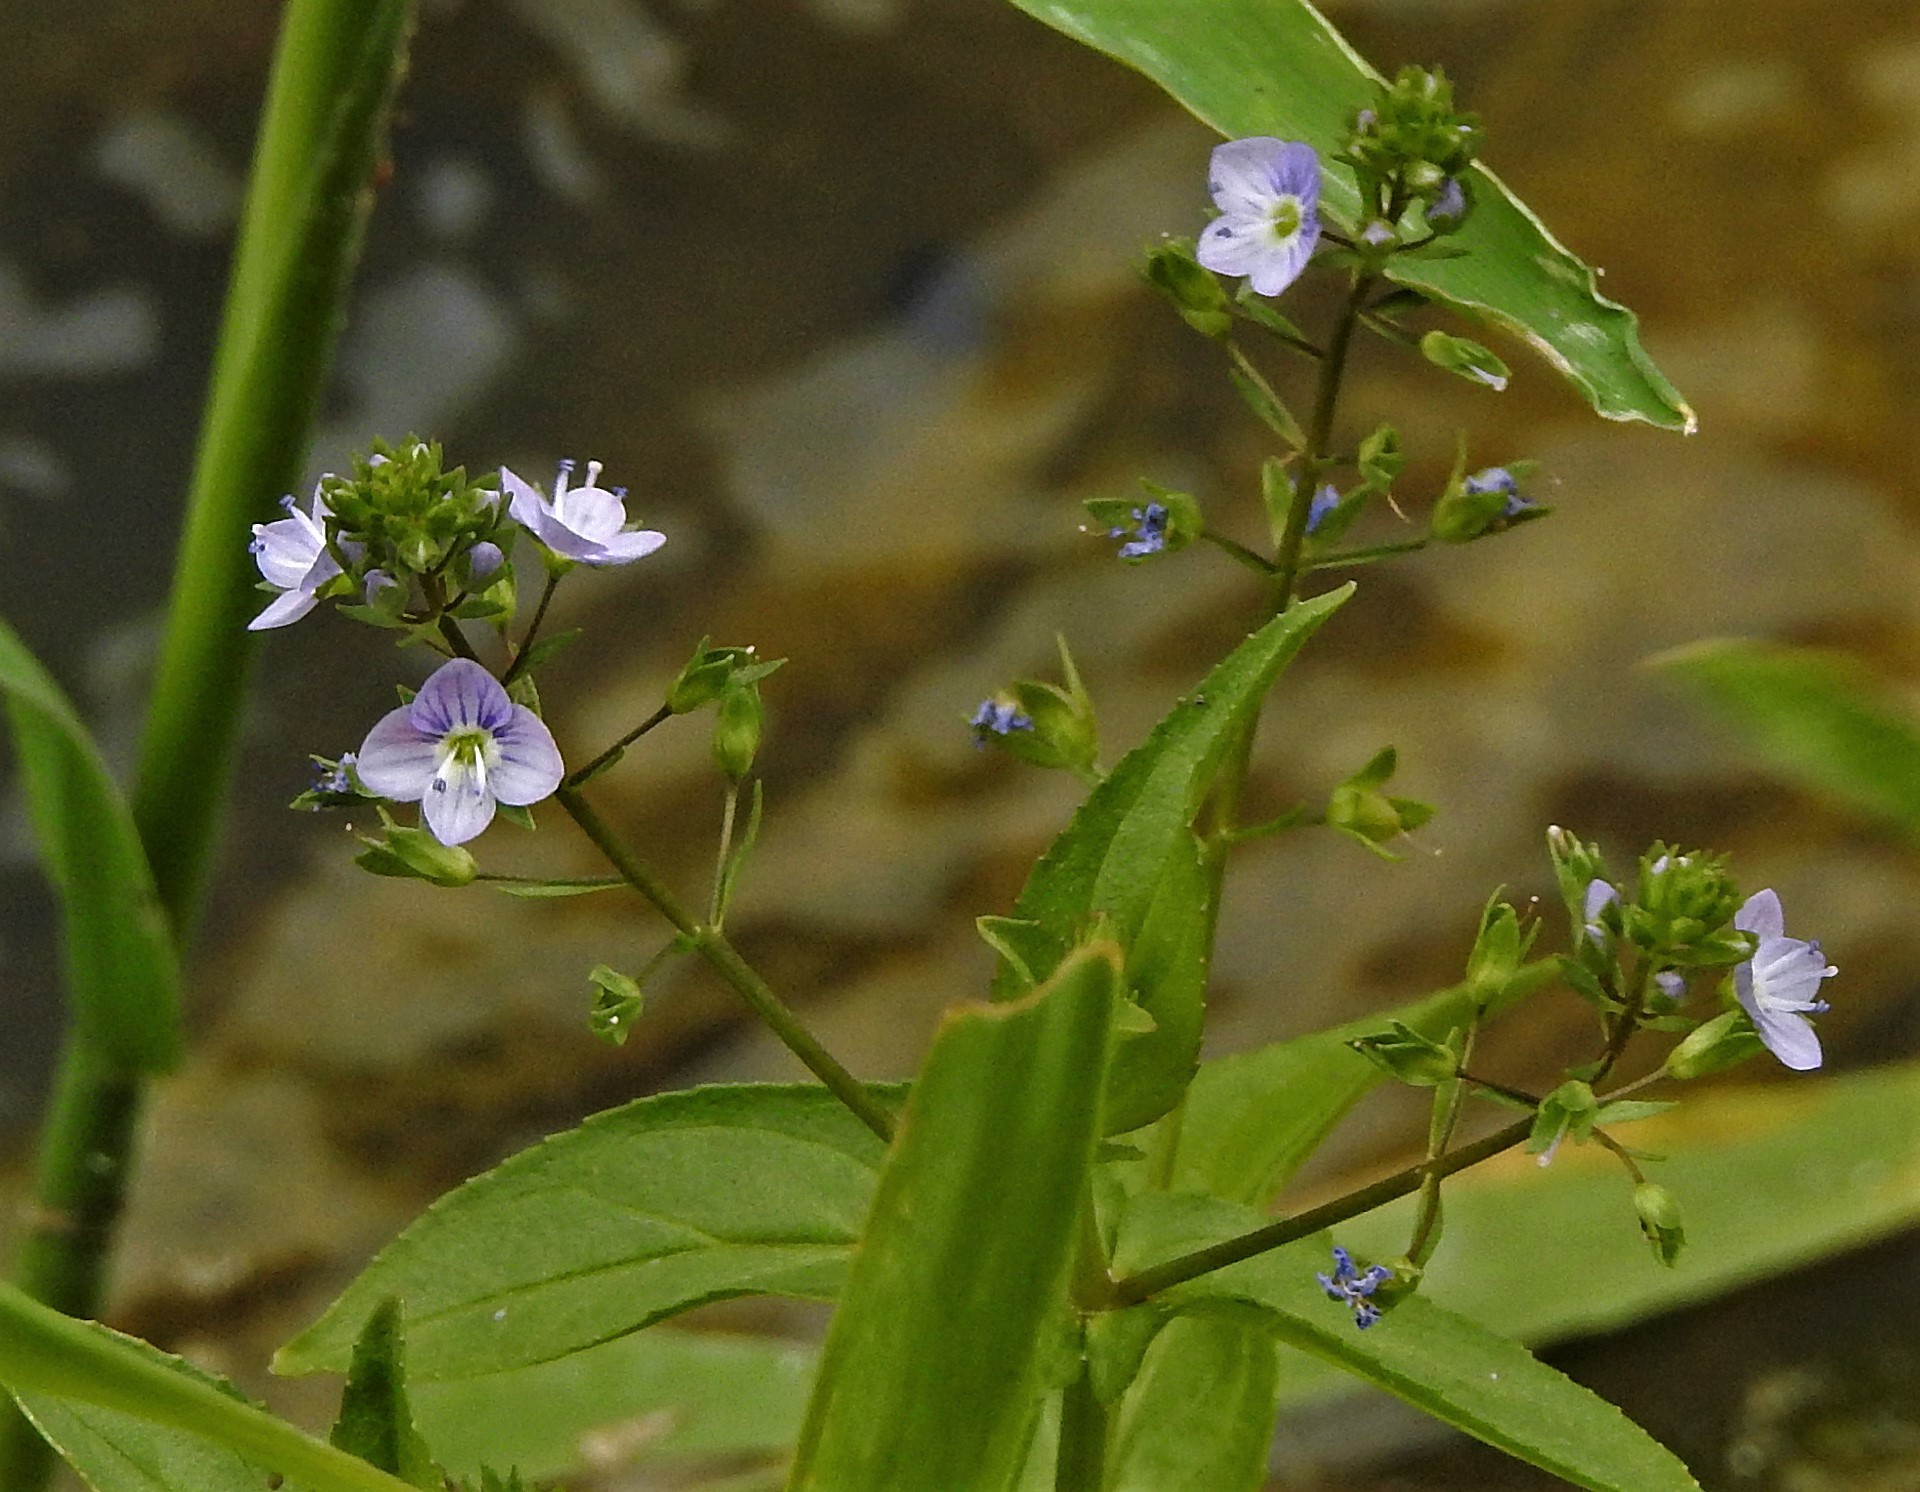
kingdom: Plantae
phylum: Tracheophyta
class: Magnoliopsida
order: Lamiales
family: Plantaginaceae
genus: Veronica
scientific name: Veronica anagallis-aquatica
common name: Water speedwell
